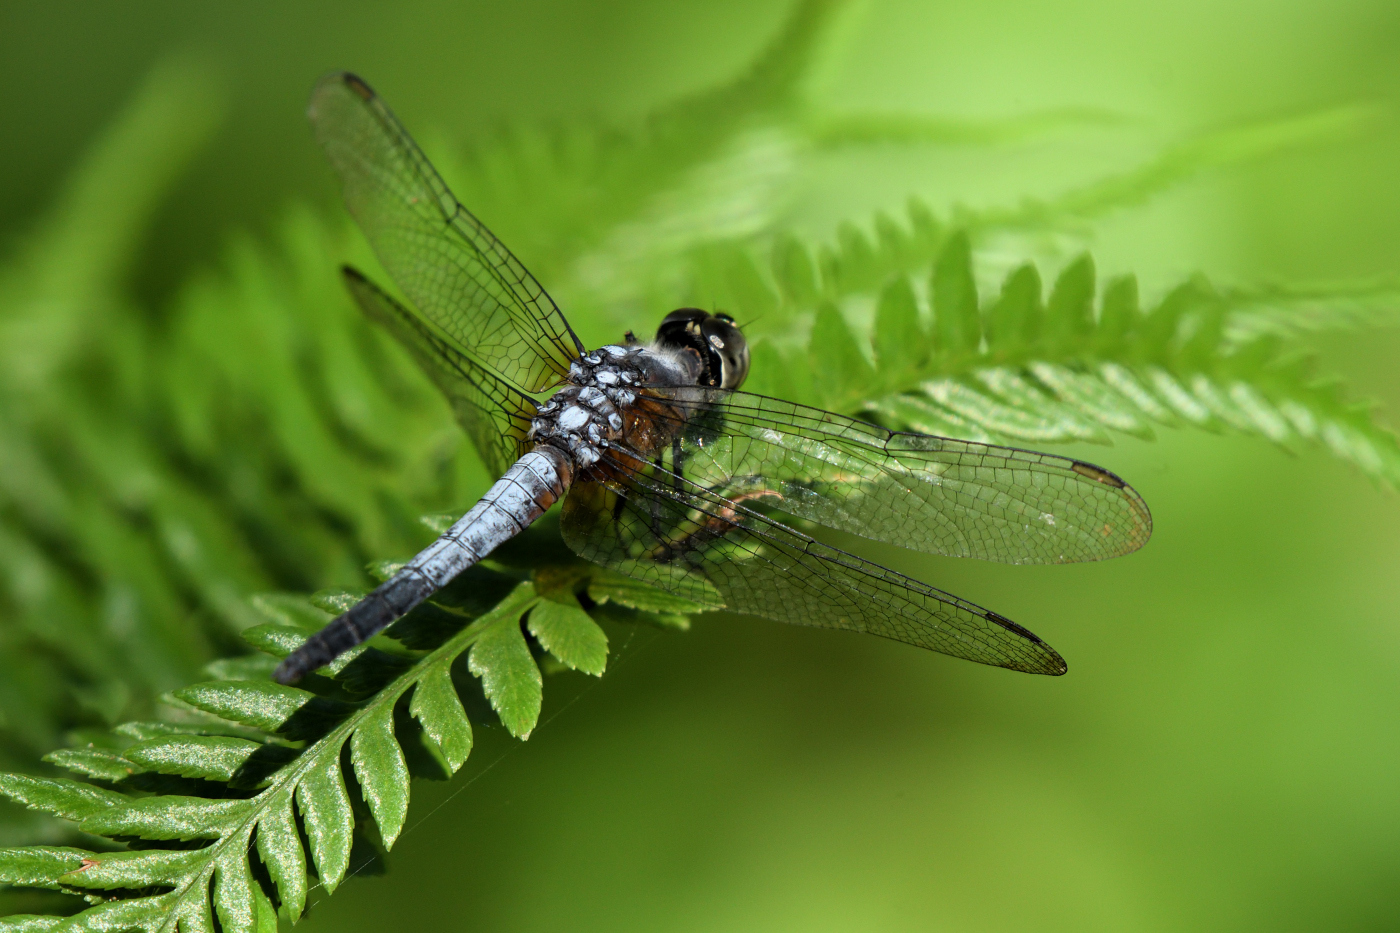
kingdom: Animalia
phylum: Arthropoda
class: Insecta
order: Odonata
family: Libellulidae
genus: Brachydiplax
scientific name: Brachydiplax chalybea
